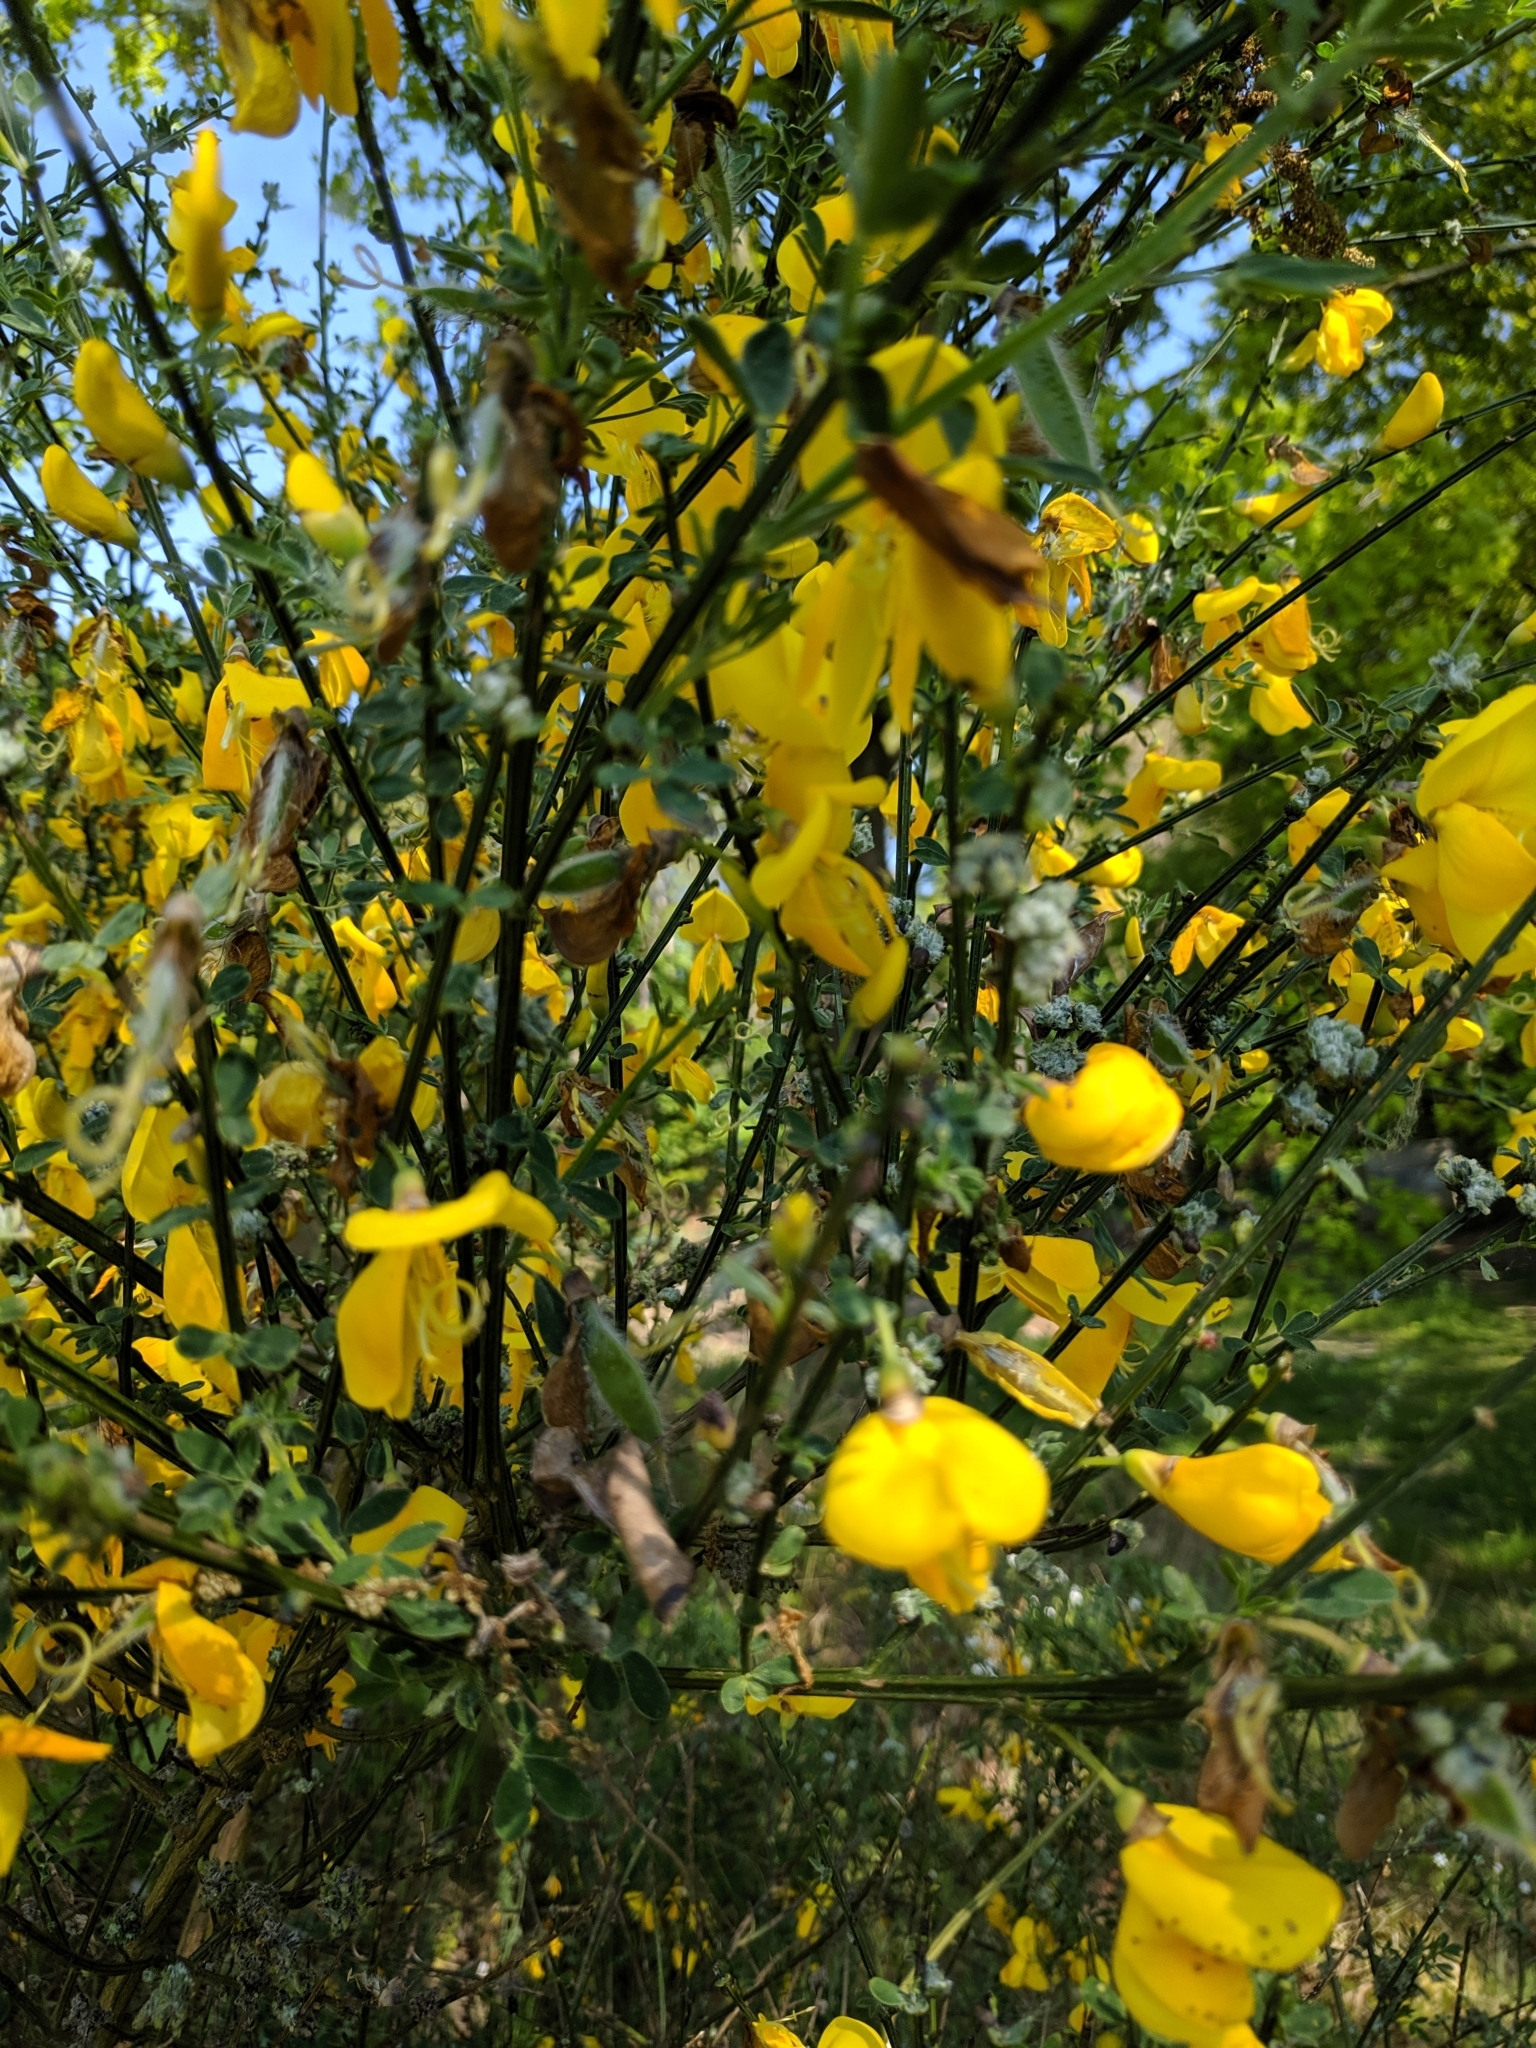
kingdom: Plantae
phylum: Tracheophyta
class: Magnoliopsida
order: Fabales
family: Fabaceae
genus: Cytisus
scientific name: Cytisus scoparius
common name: Scotch broom
